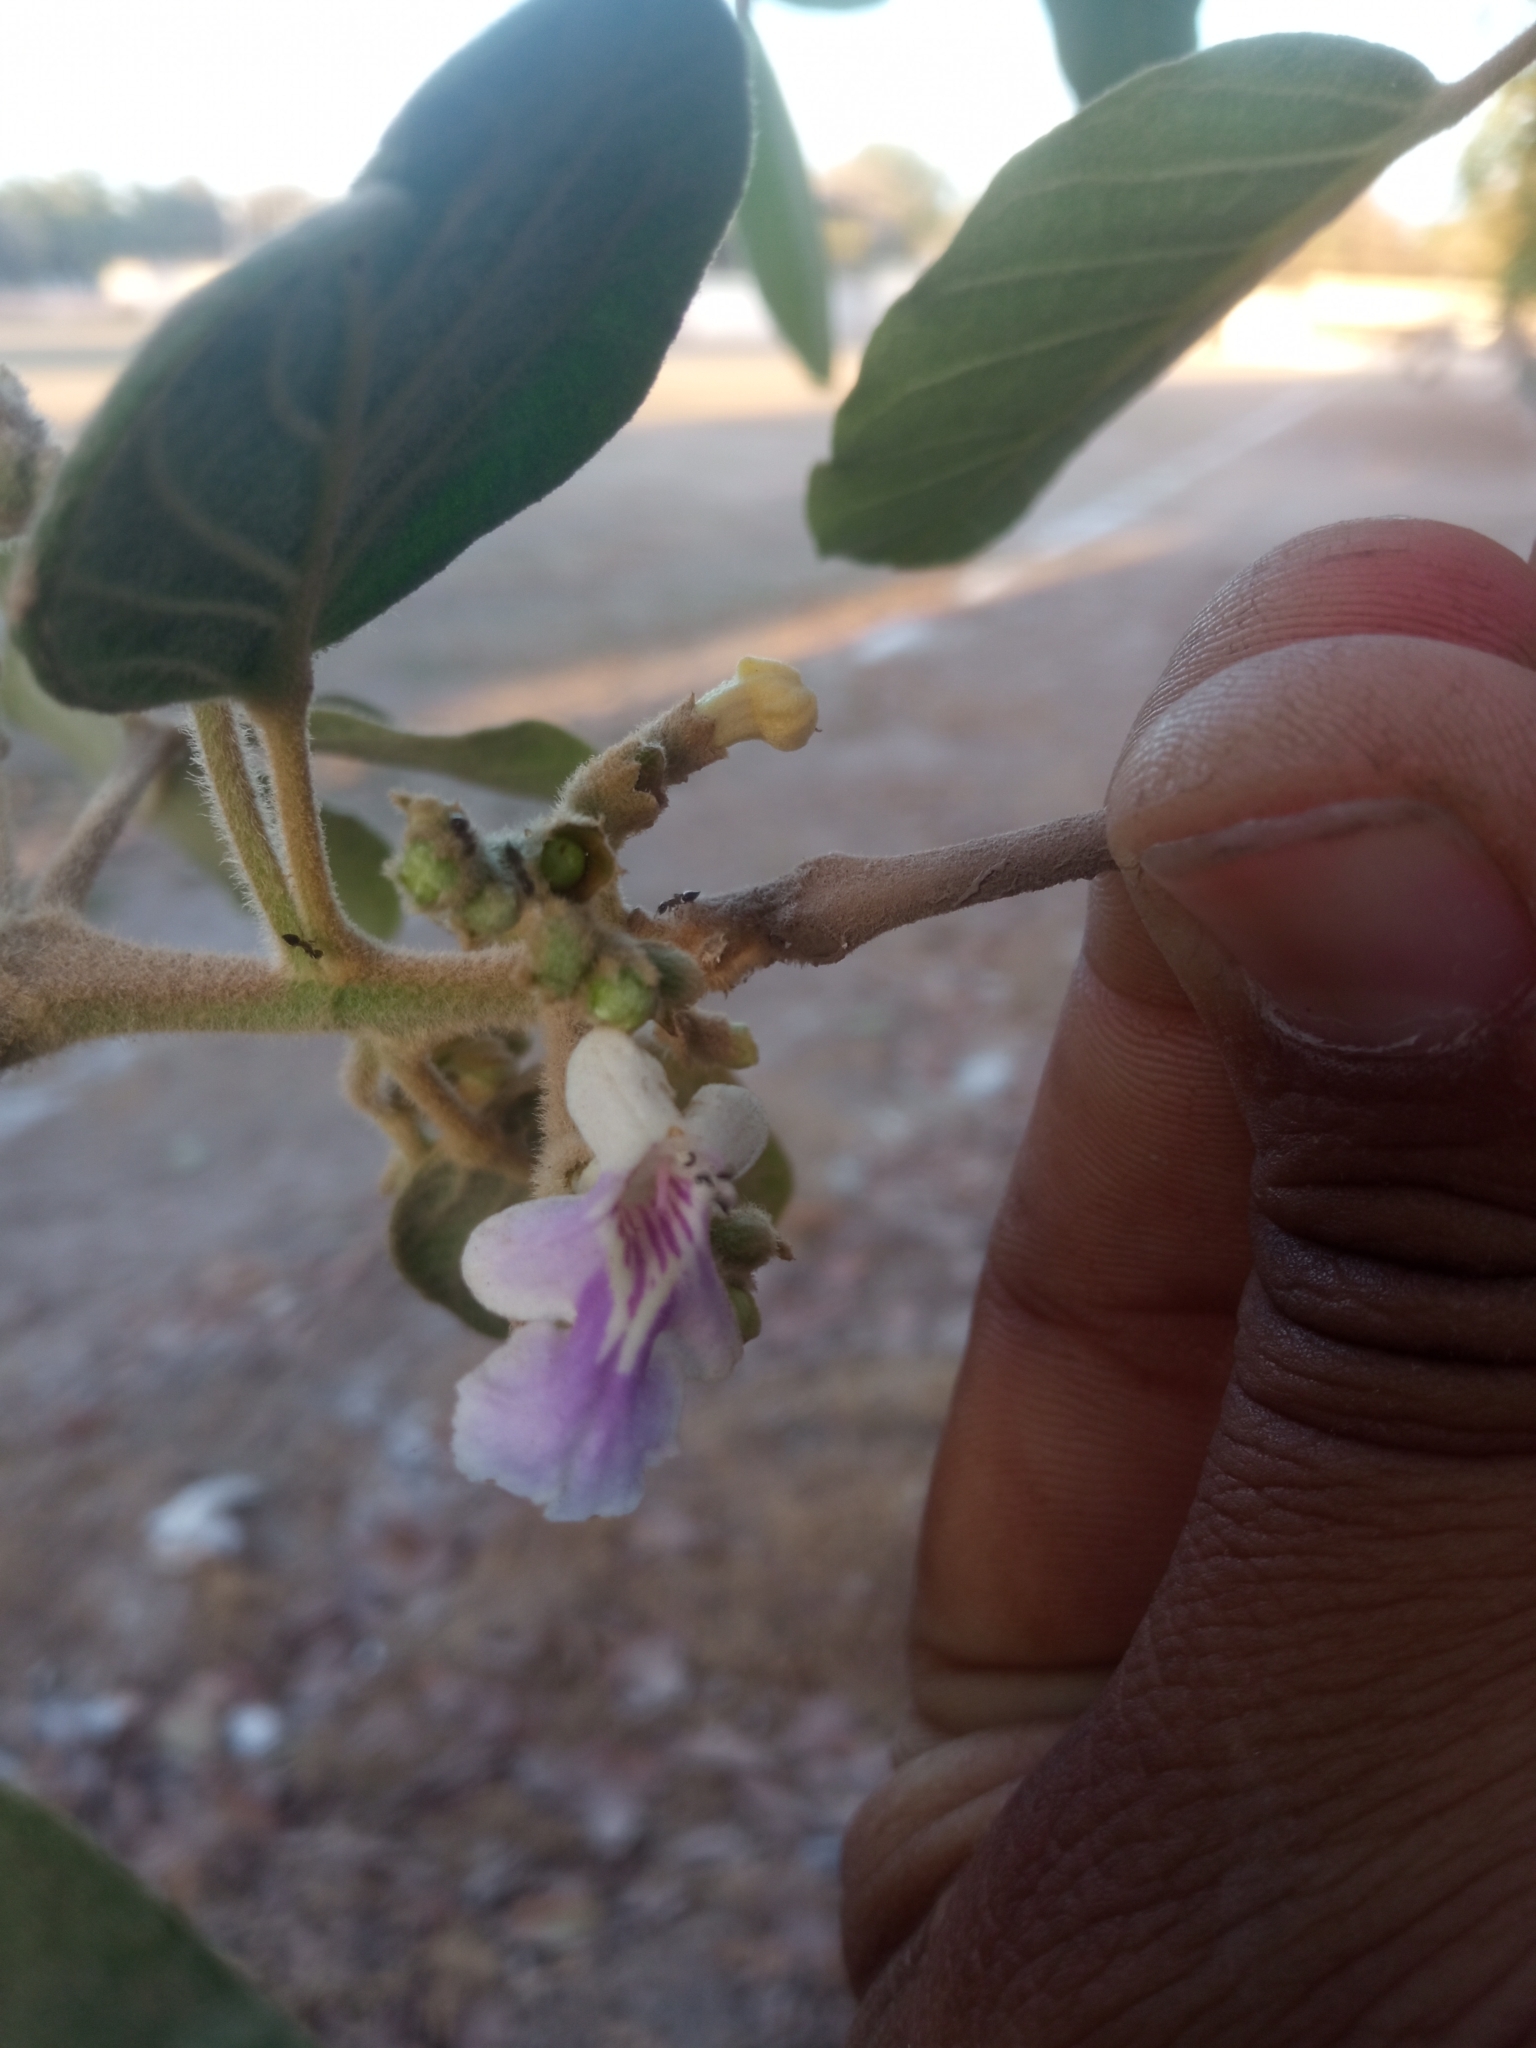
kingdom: Plantae
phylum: Tracheophyta
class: Magnoliopsida
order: Lamiales
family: Lamiaceae
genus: Vitex
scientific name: Vitex mollis
